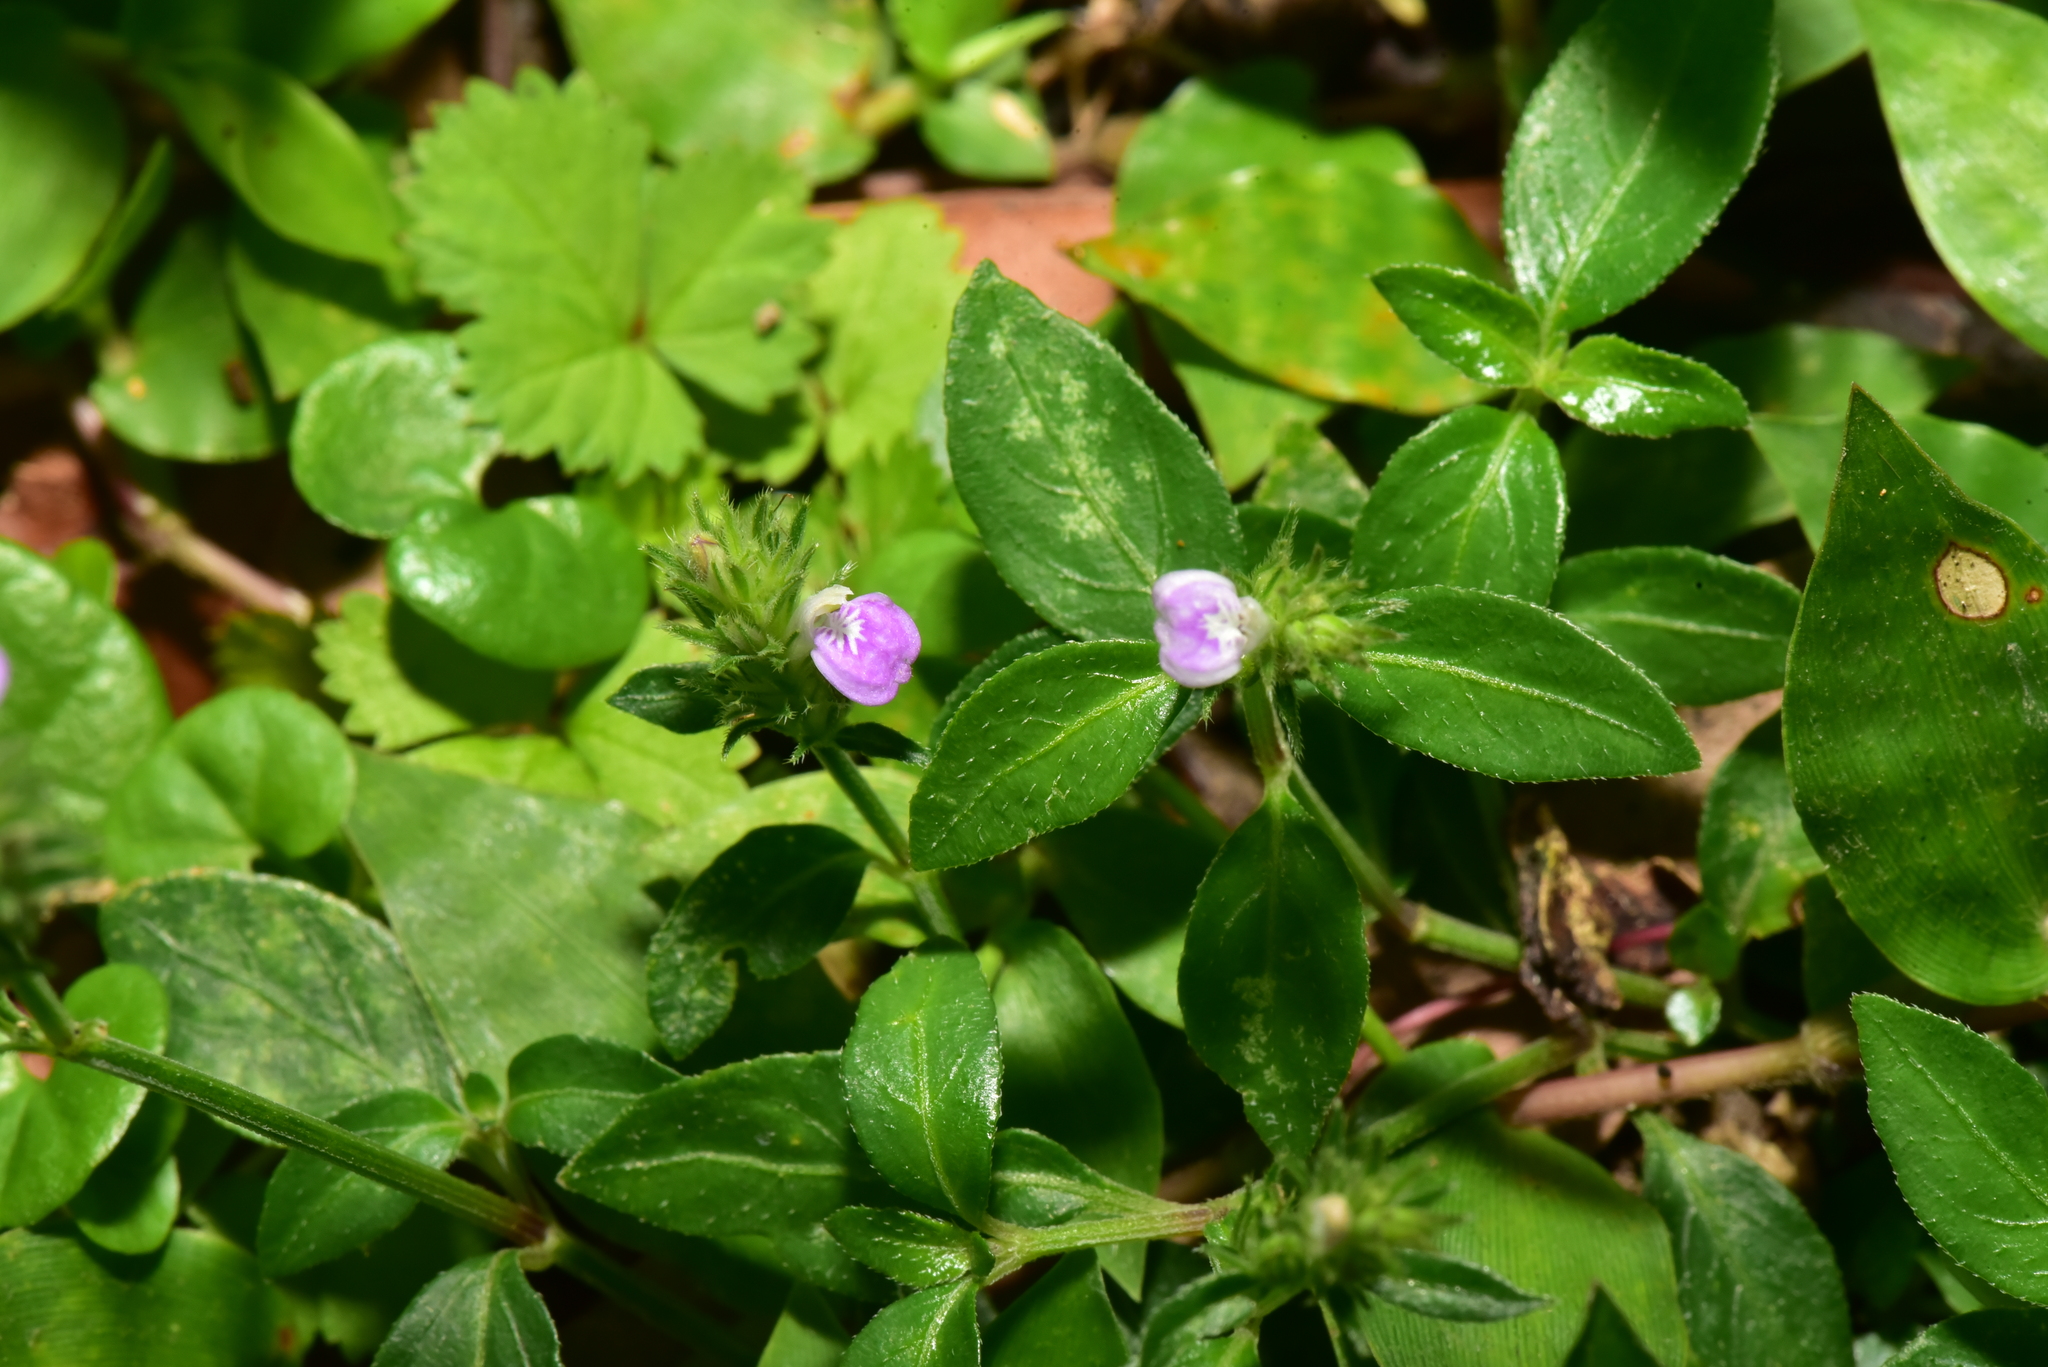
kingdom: Plantae
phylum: Tracheophyta
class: Magnoliopsida
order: Lamiales
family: Acanthaceae
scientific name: Acanthaceae
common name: Acanthaceae
